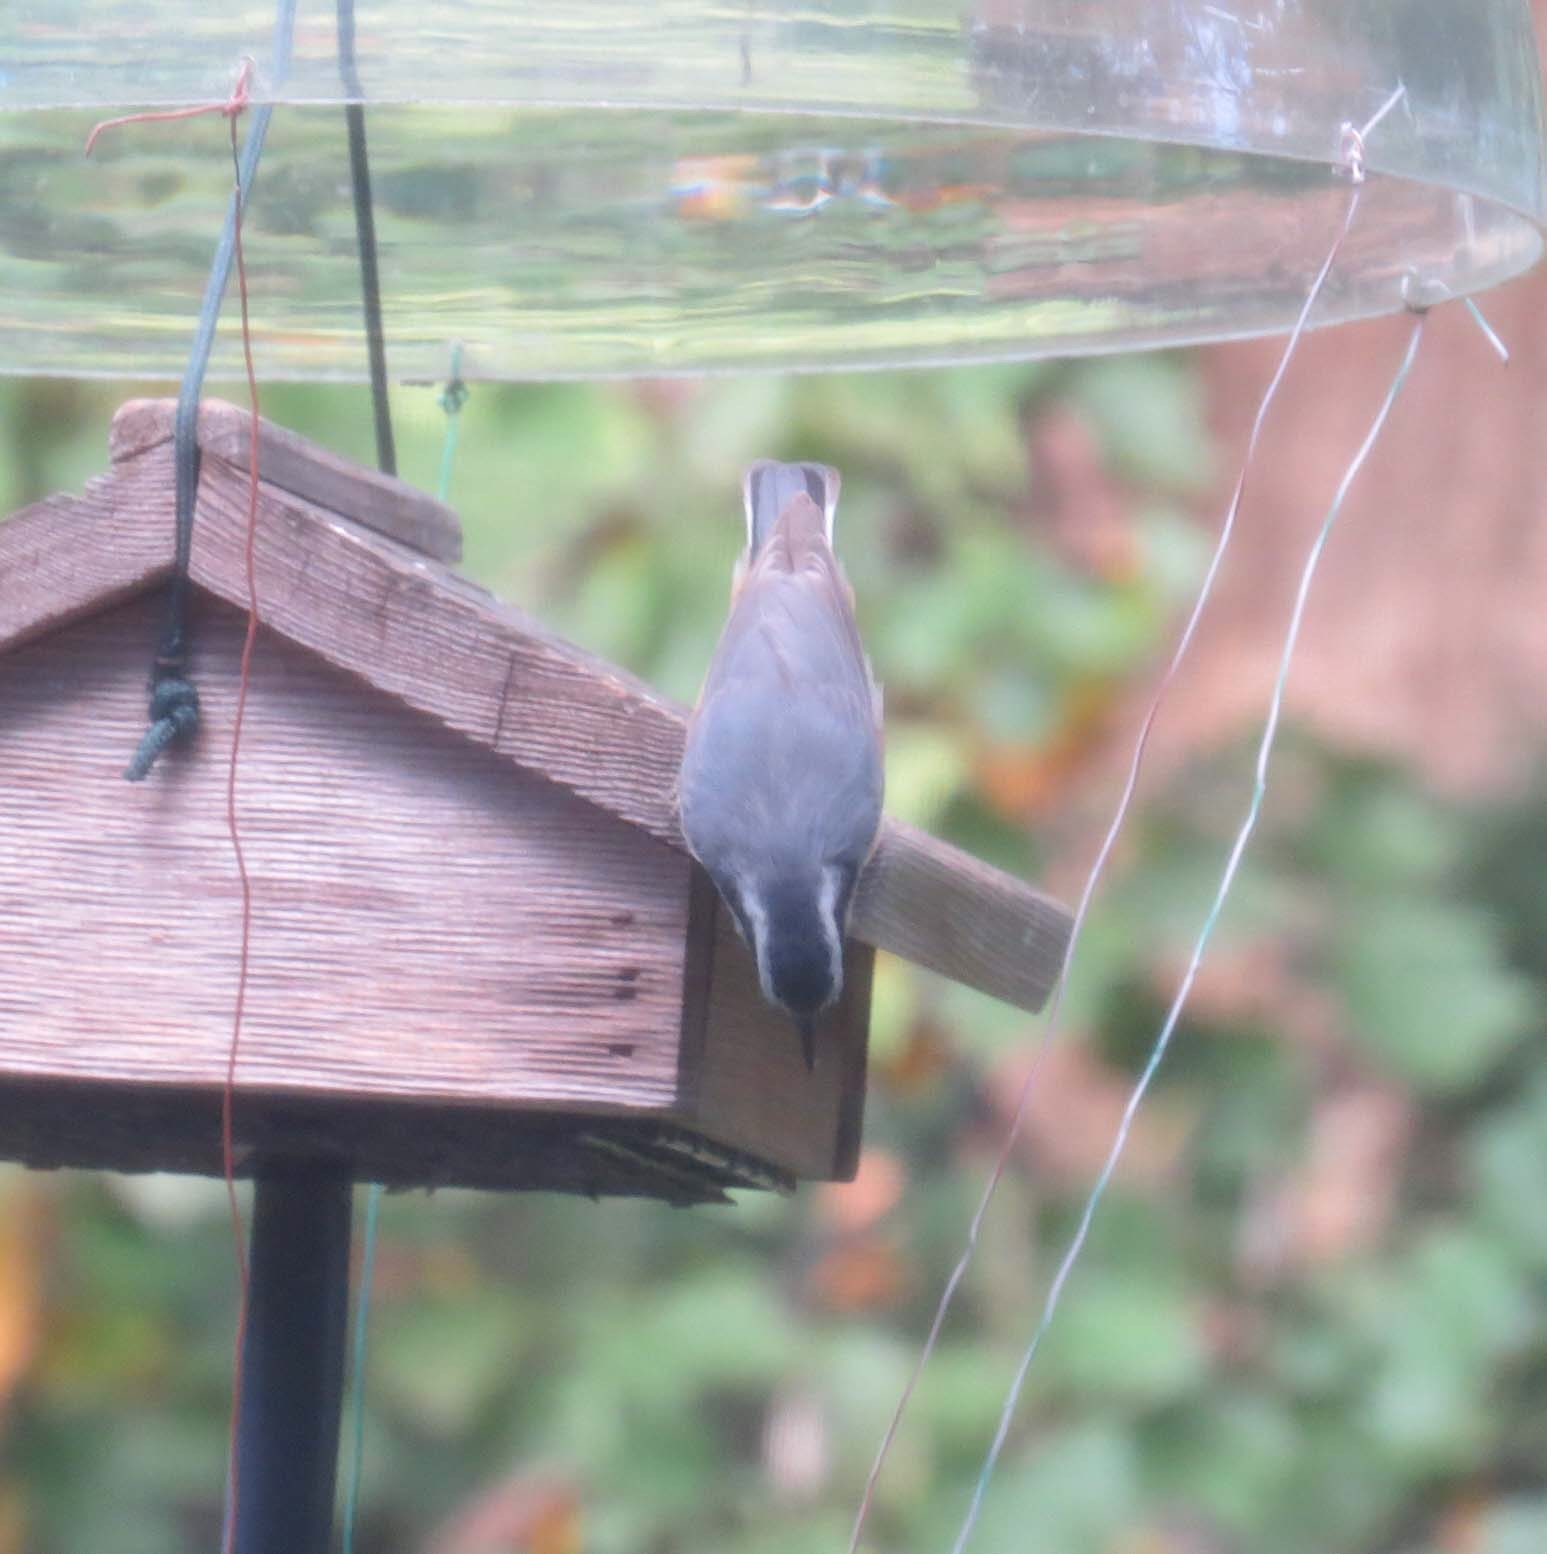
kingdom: Animalia
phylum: Chordata
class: Aves
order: Passeriformes
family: Sittidae
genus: Sitta
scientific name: Sitta canadensis
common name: Red-breasted nuthatch
